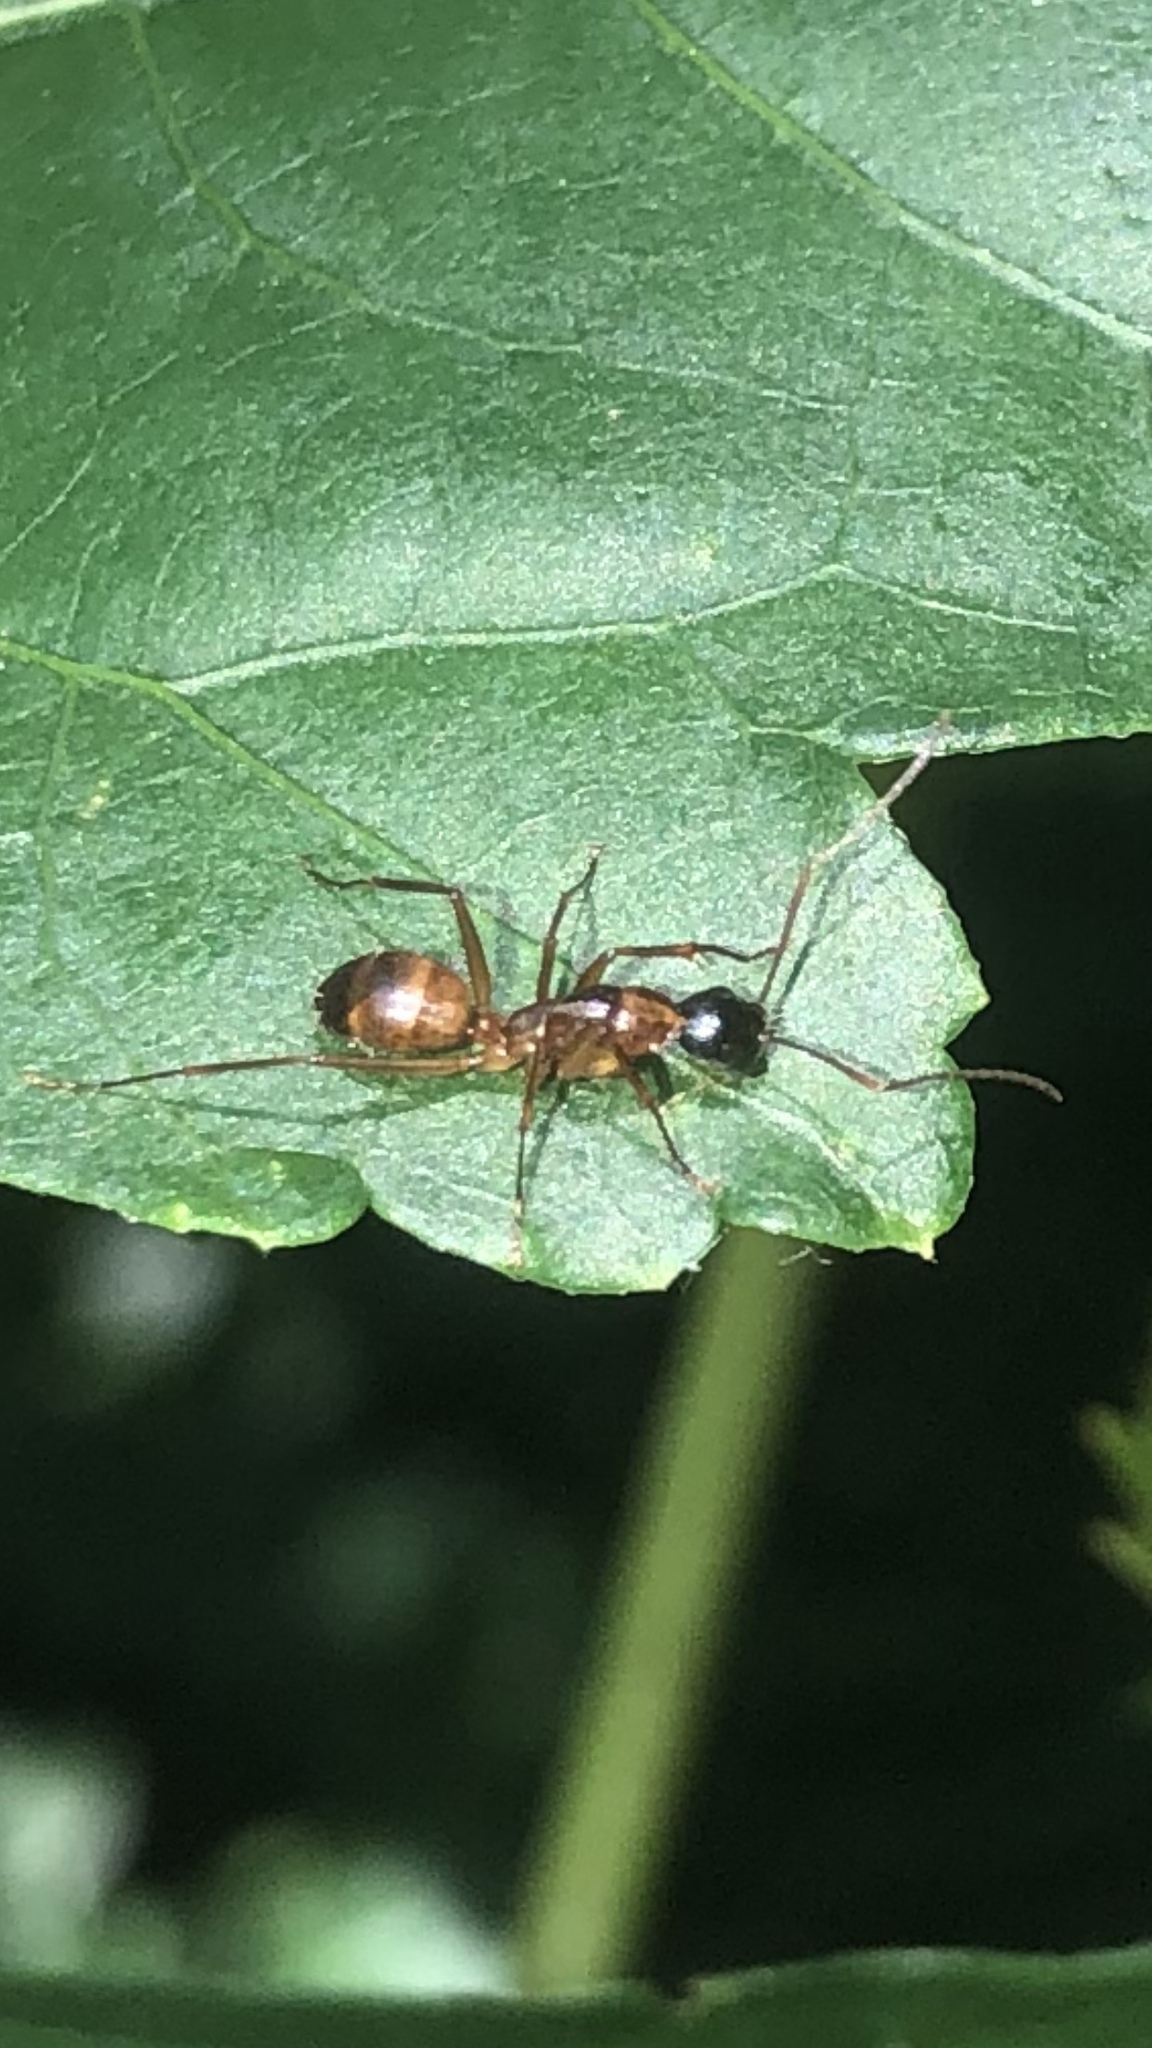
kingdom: Animalia
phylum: Arthropoda
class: Insecta
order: Hymenoptera
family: Formicidae
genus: Camponotus
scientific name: Camponotus americanus
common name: American carpenter ant
